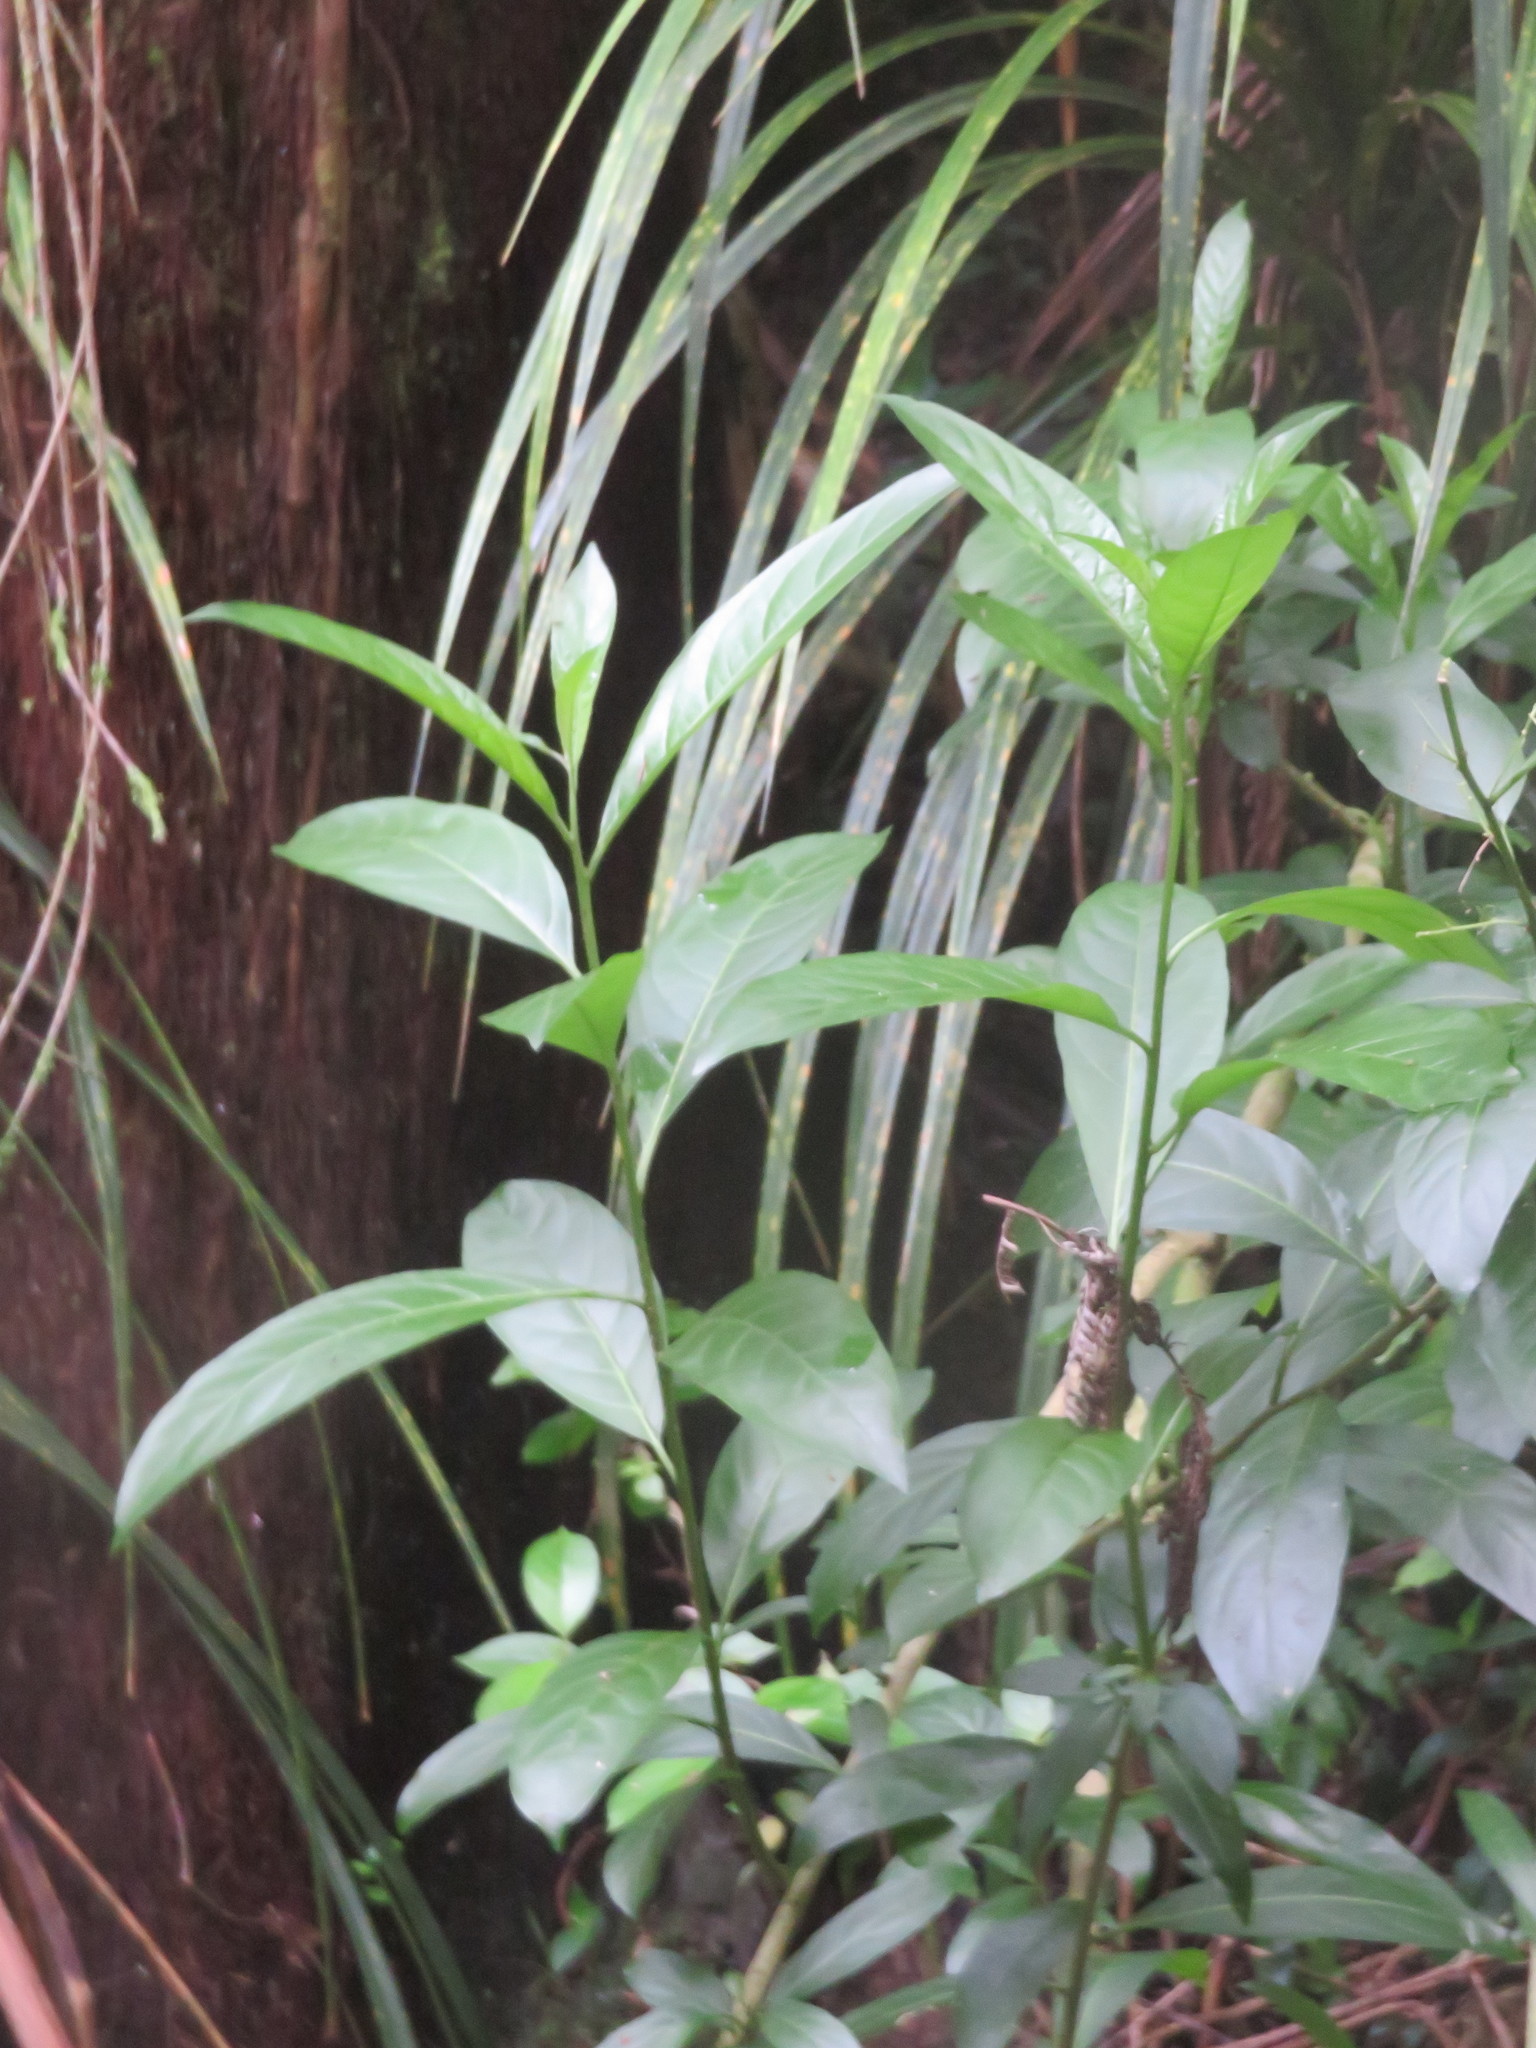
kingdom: Plantae
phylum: Tracheophyta
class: Magnoliopsida
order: Solanales
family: Solanaceae
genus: Cestrum
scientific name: Cestrum nocturnum
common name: Night jessamine
